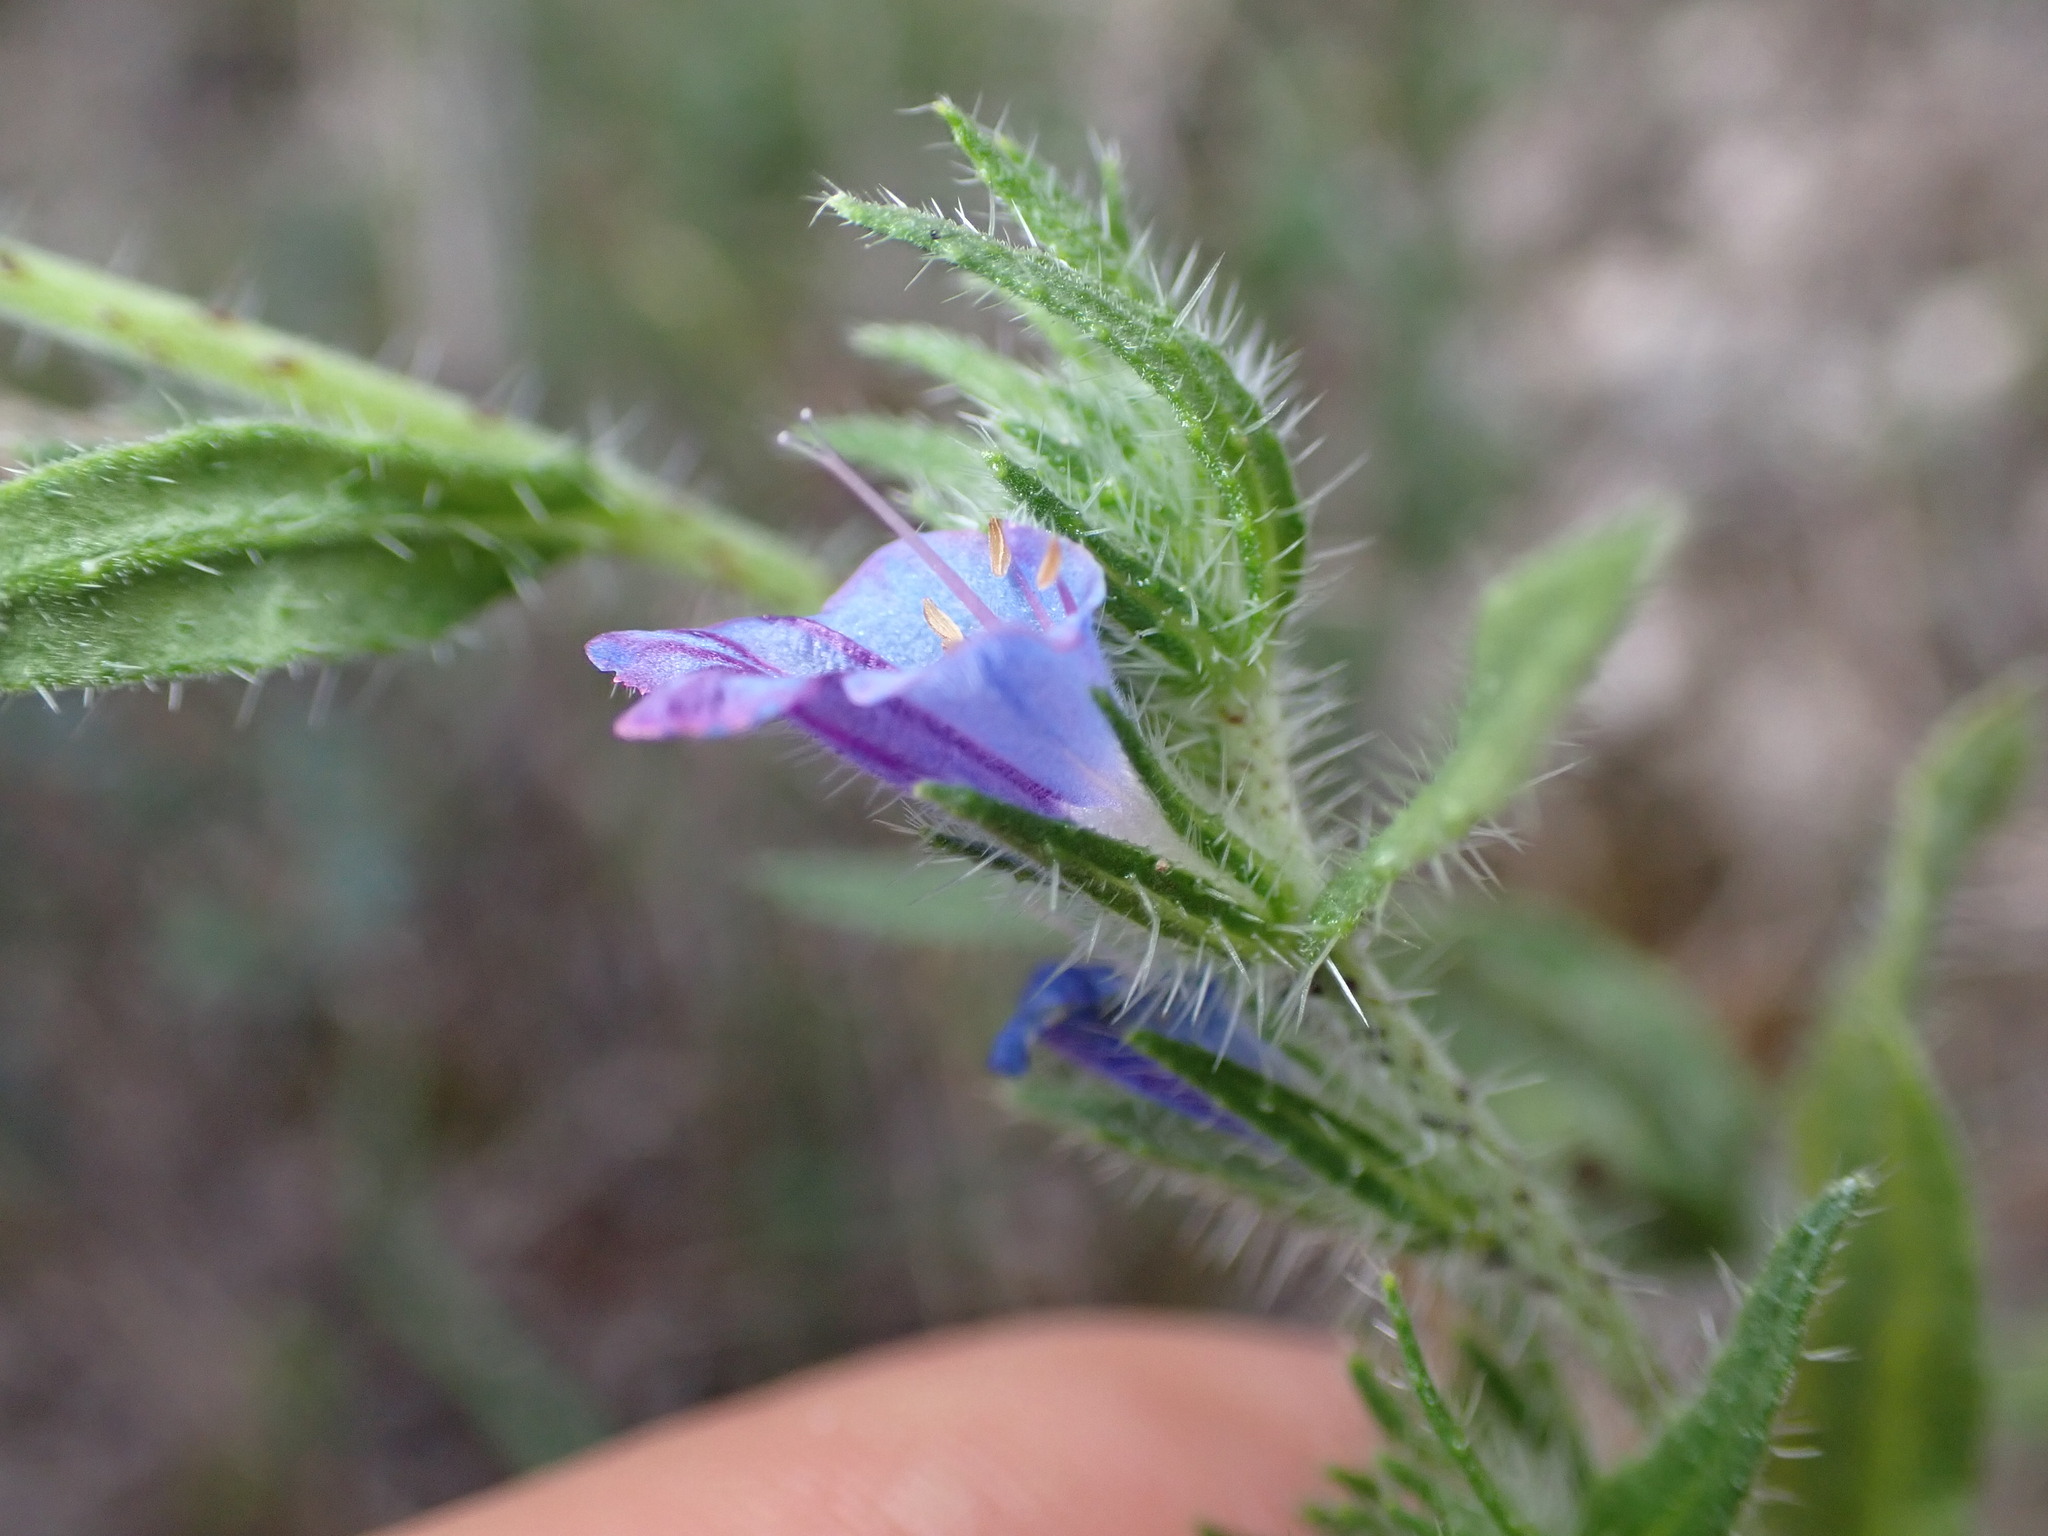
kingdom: Plantae
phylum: Tracheophyta
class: Magnoliopsida
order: Boraginales
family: Boraginaceae
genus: Echium
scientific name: Echium vulgare
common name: Common viper's bugloss
